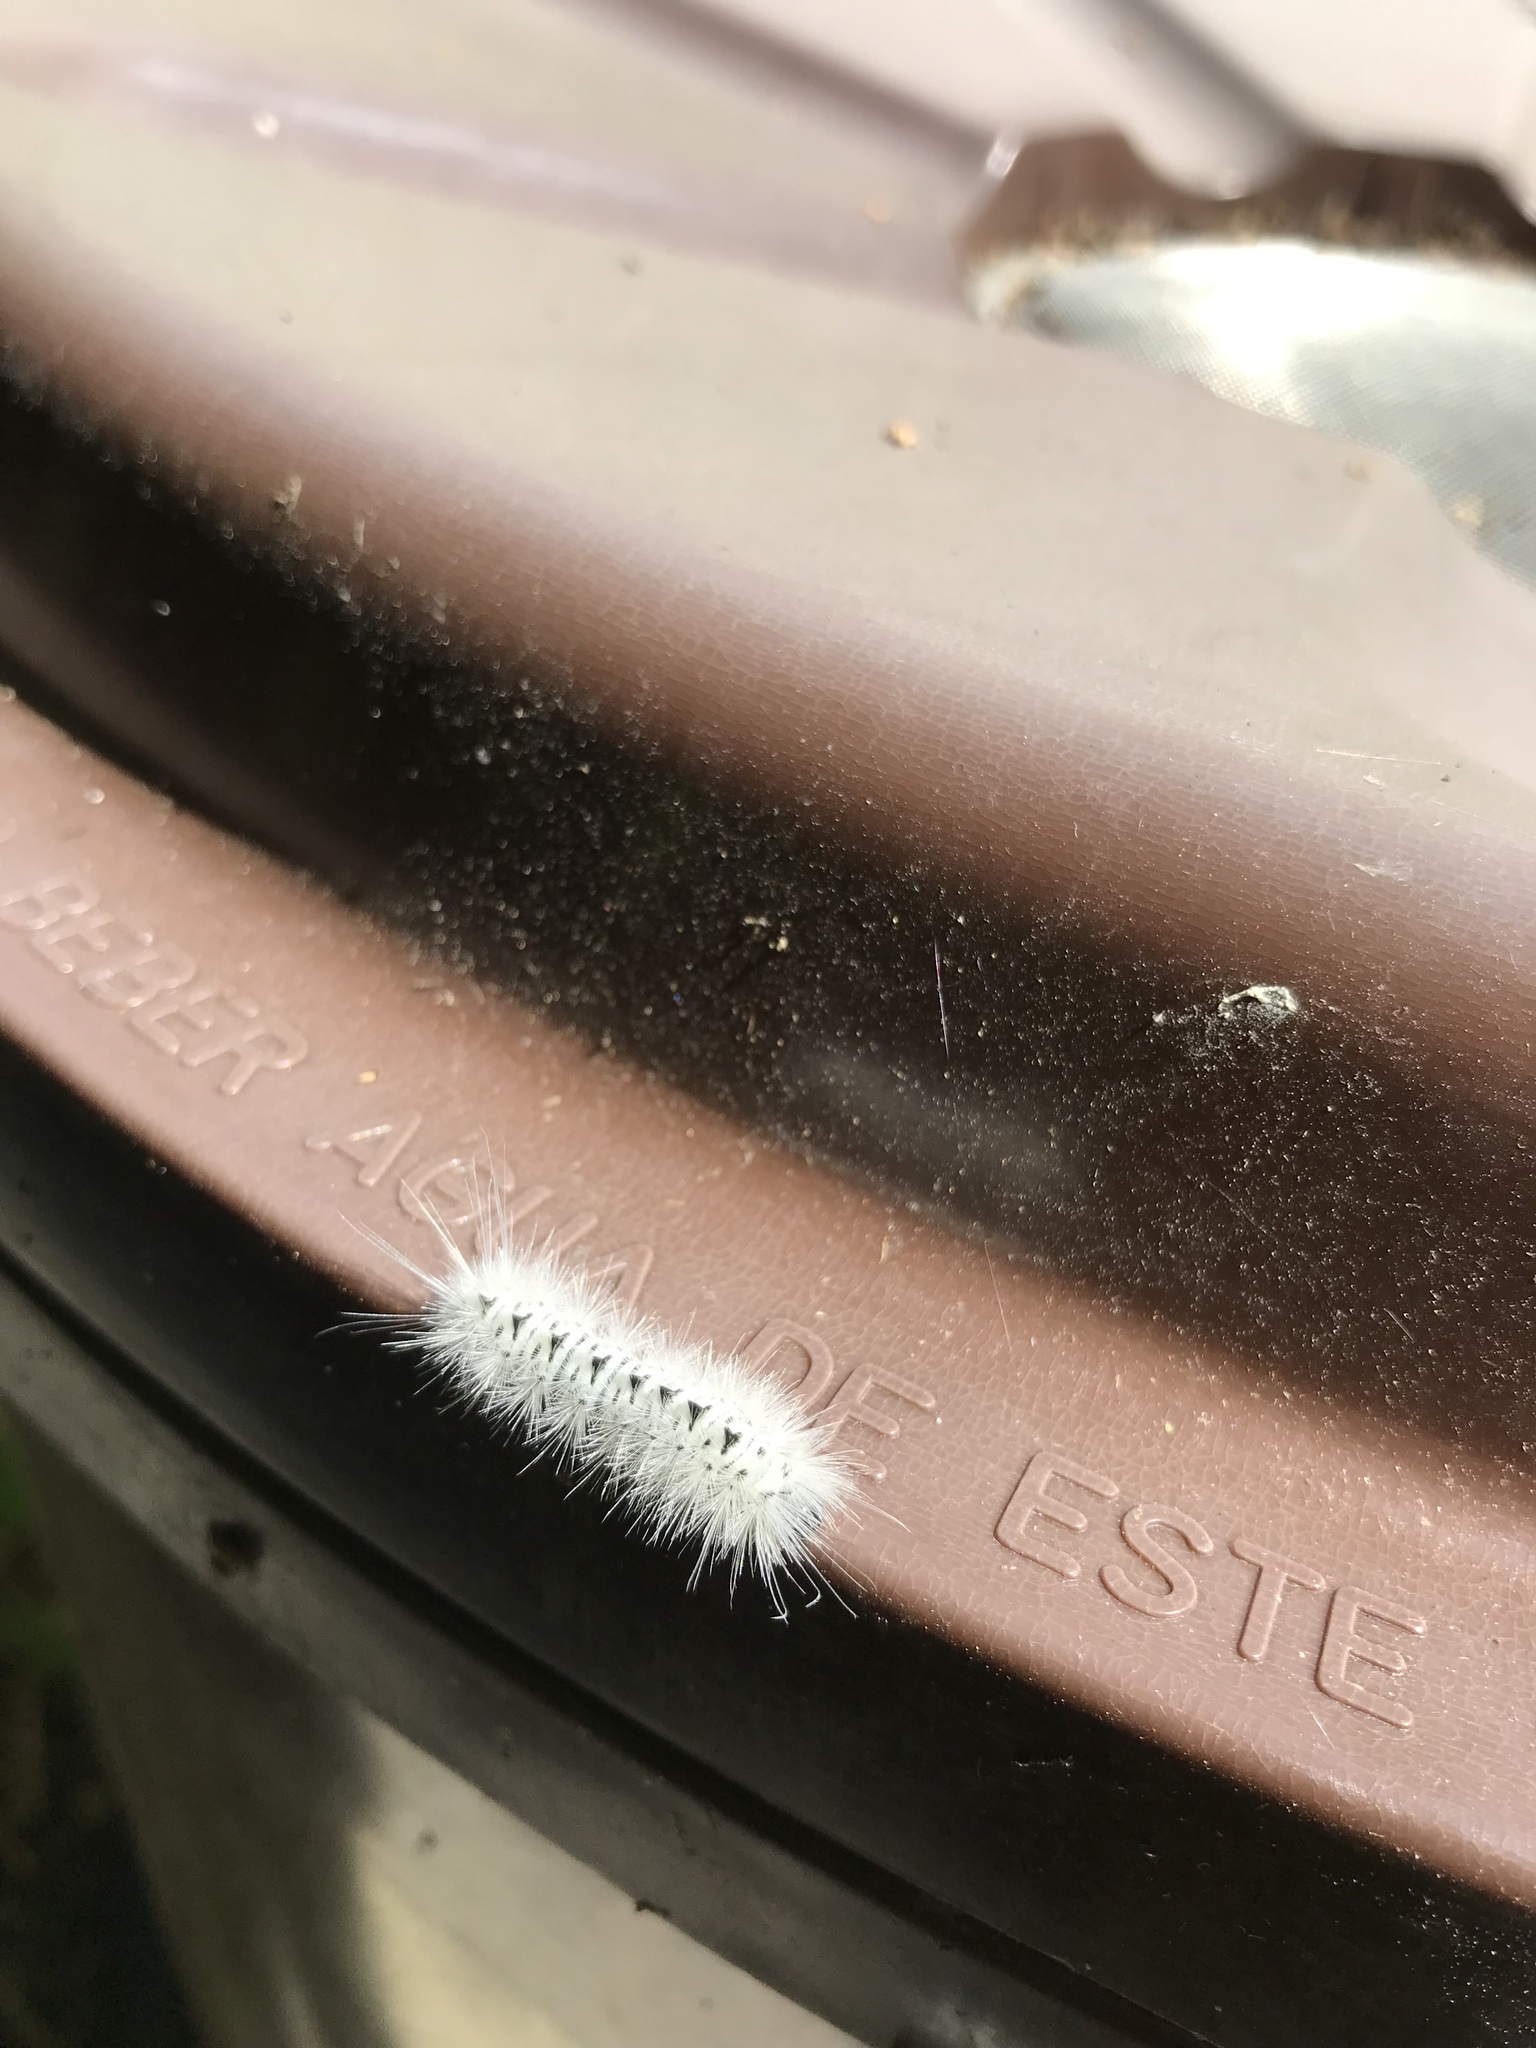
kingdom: Animalia
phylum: Arthropoda
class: Insecta
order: Lepidoptera
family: Erebidae
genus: Lophocampa
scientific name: Lophocampa caryae
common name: Hickory tussock moth
